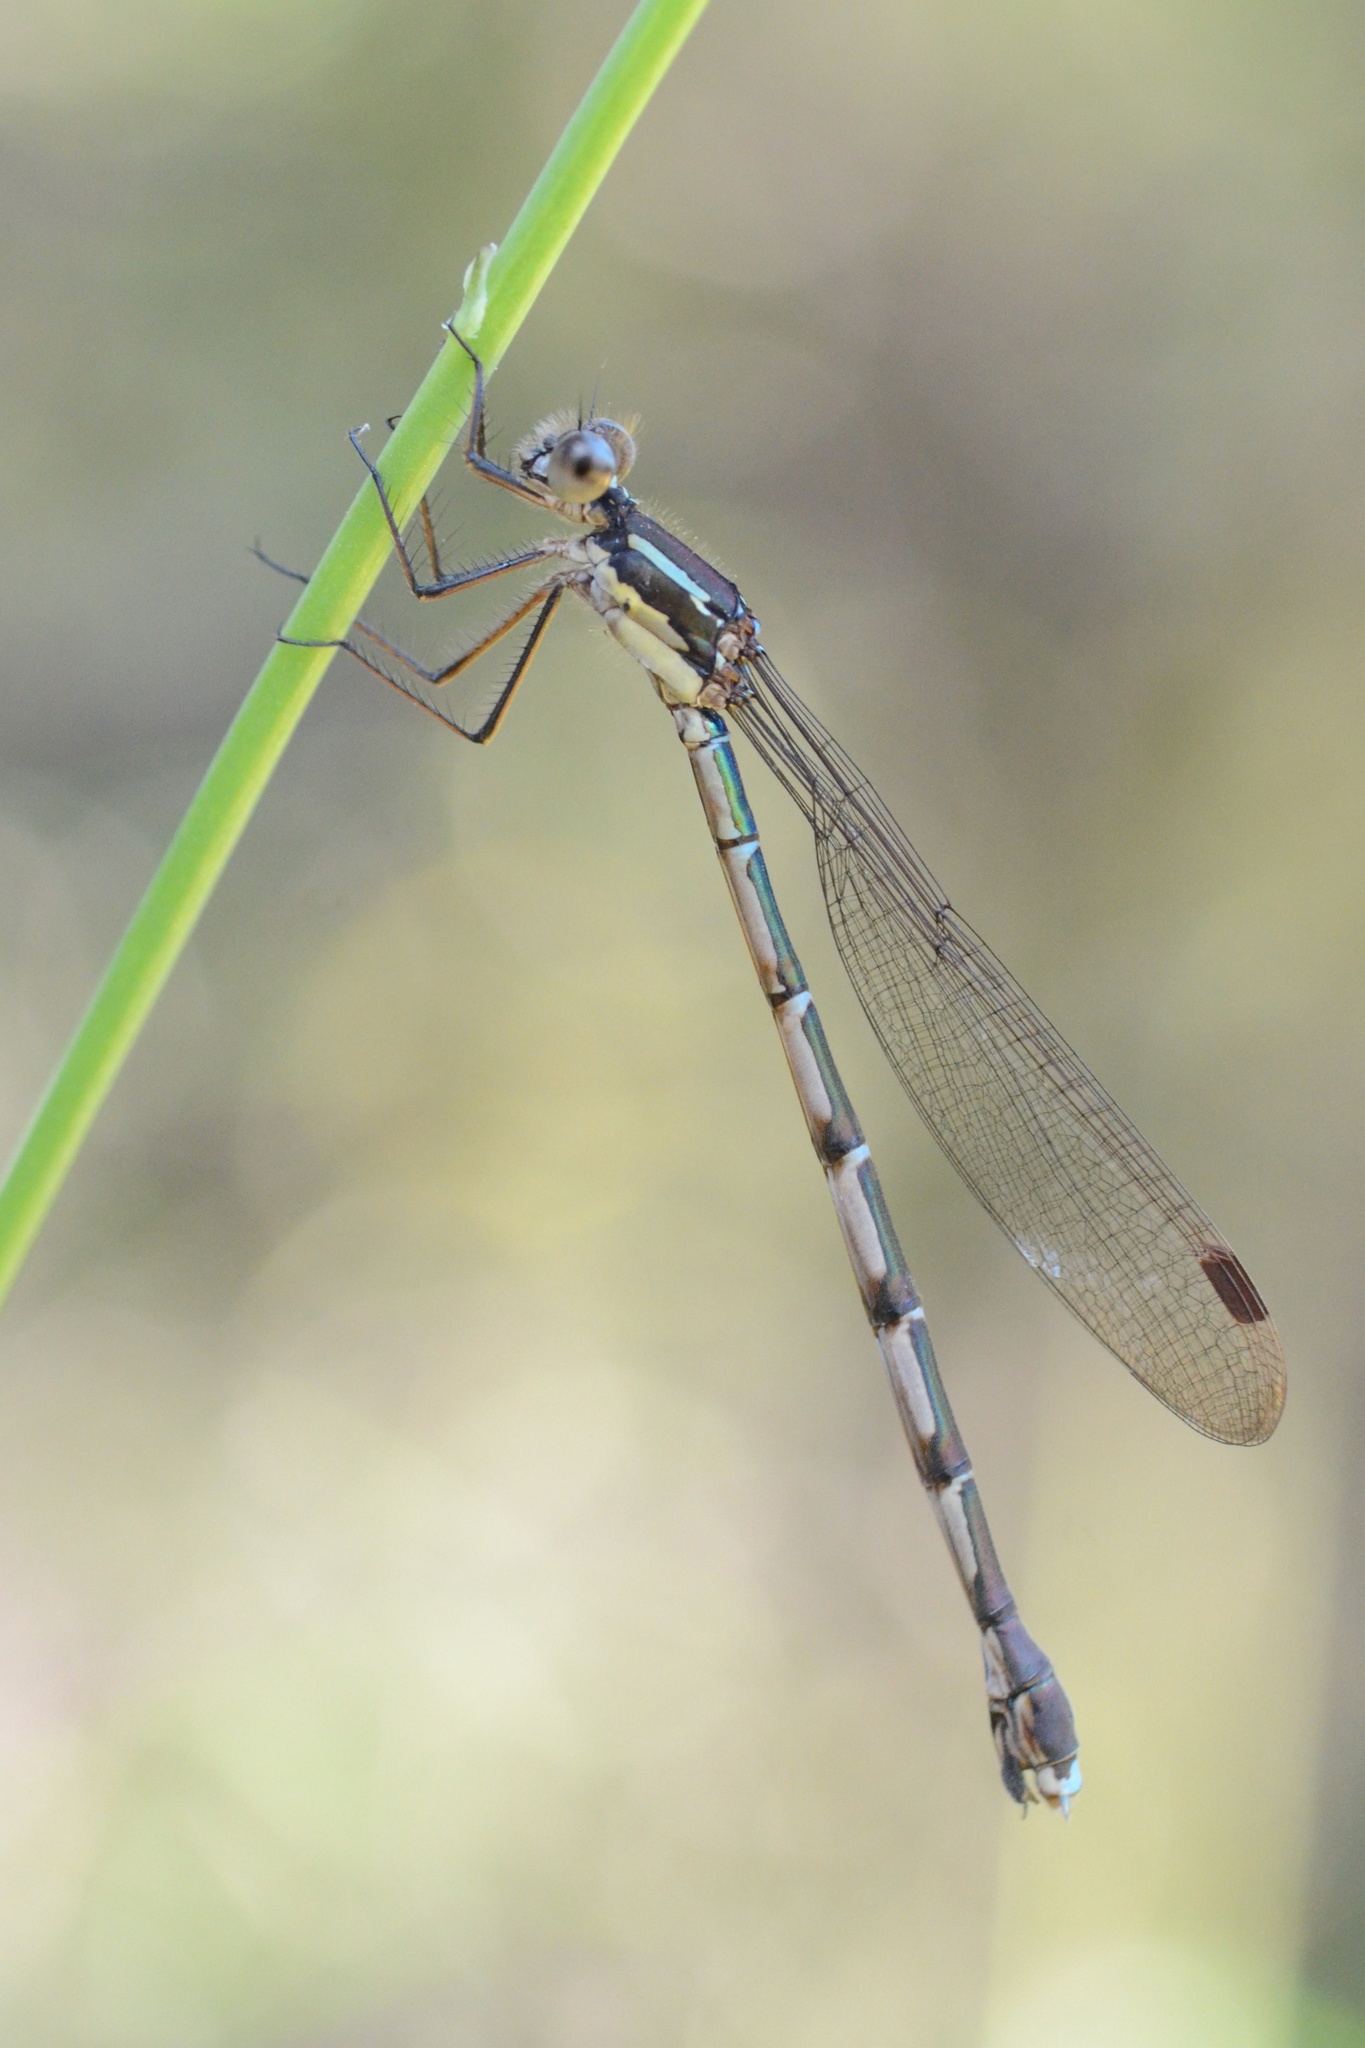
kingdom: Animalia
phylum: Arthropoda
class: Insecta
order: Odonata
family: Lestidae
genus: Austrolestes
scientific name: Austrolestes colensonis
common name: Blue damselfly
